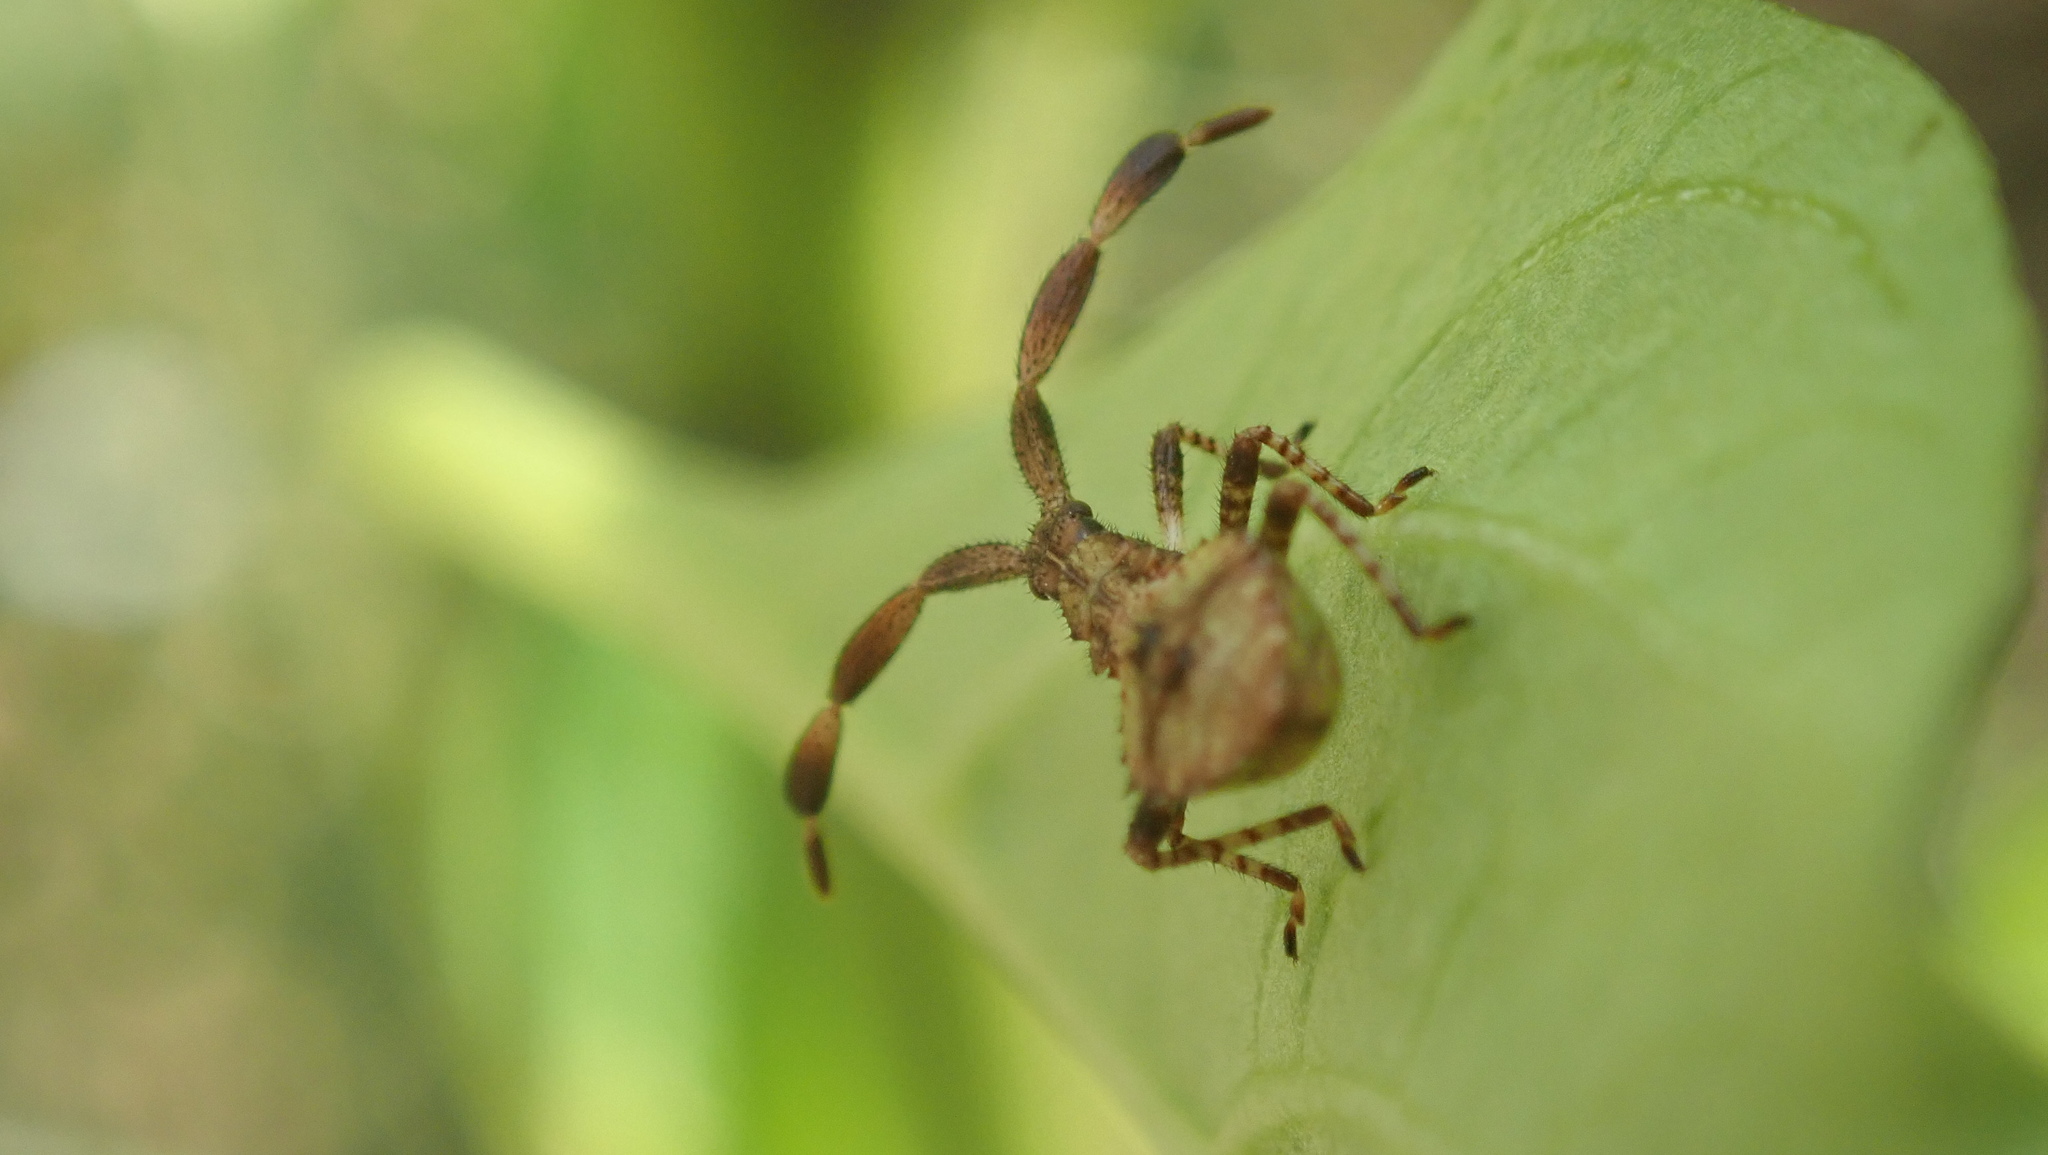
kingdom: Animalia
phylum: Arthropoda
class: Insecta
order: Hemiptera
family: Coreidae
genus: Coreus
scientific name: Coreus marginatus
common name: Dock bug
